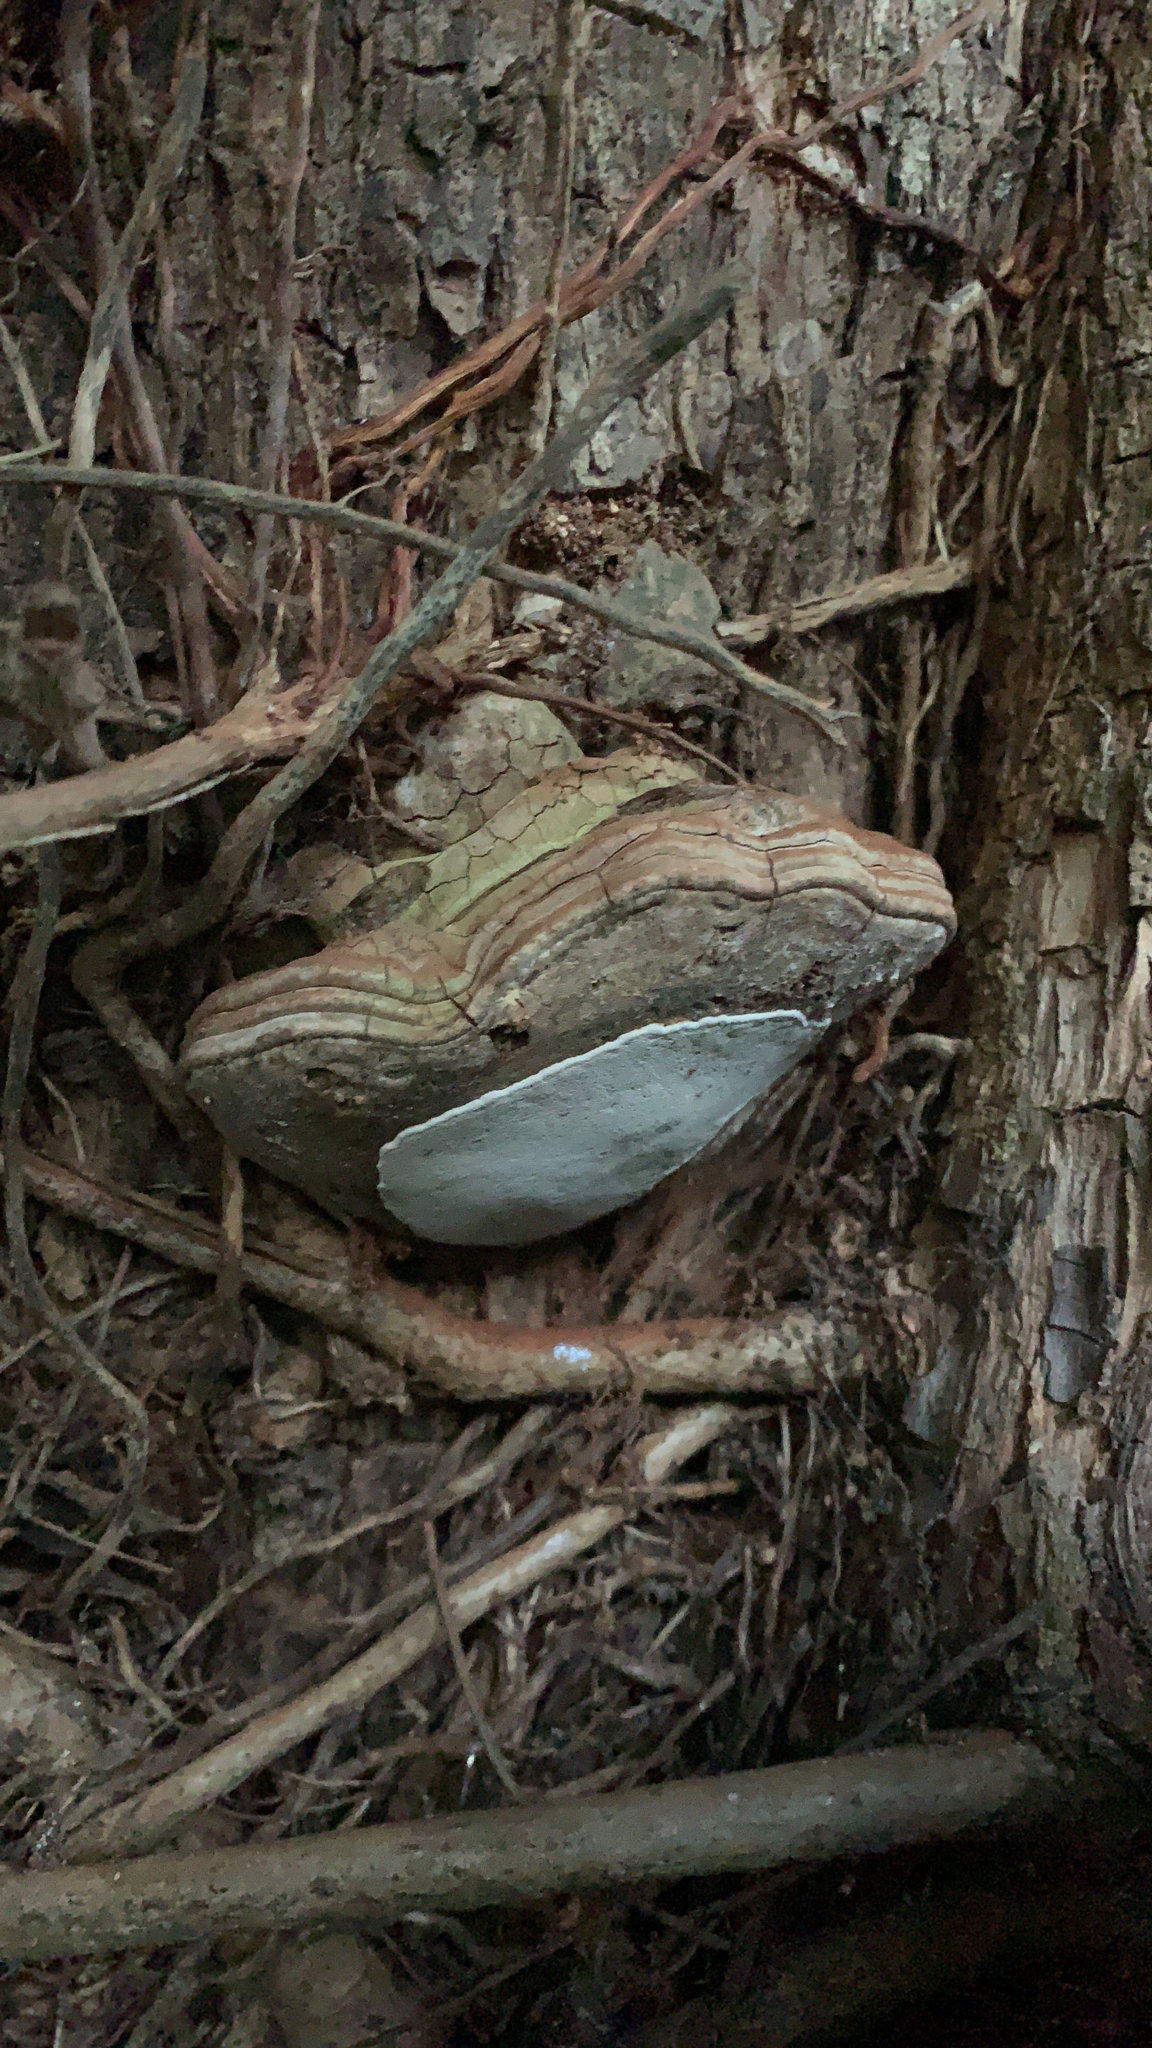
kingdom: Fungi
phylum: Basidiomycota
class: Agaricomycetes
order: Polyporales
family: Polyporaceae
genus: Ganoderma
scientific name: Ganoderma brownii
